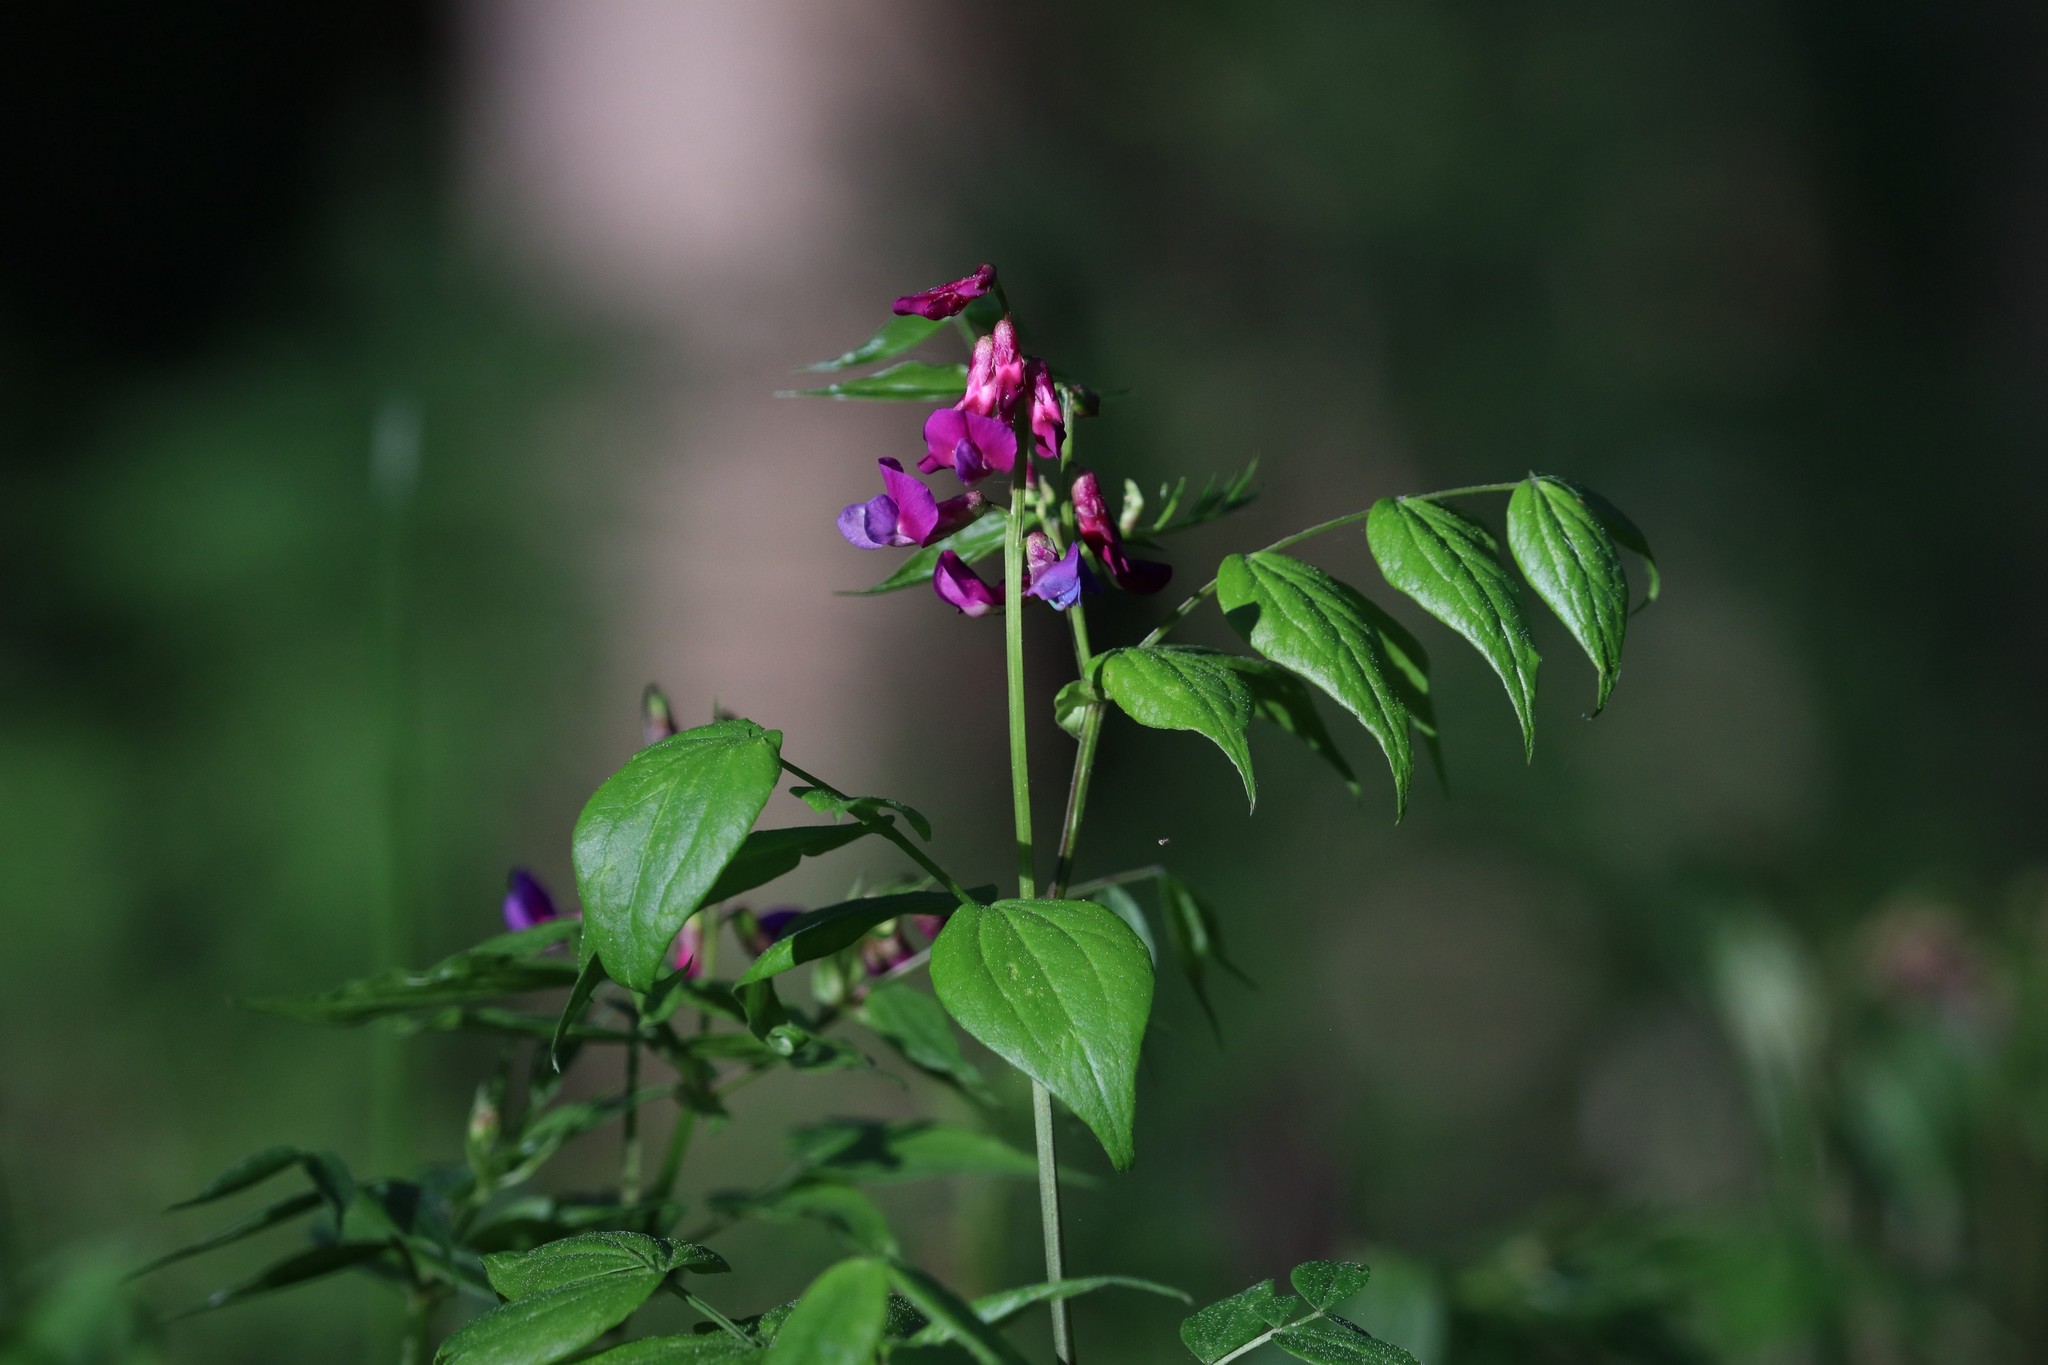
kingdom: Plantae
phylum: Tracheophyta
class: Magnoliopsida
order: Fabales
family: Fabaceae
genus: Lathyrus
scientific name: Lathyrus vernus
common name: Spring pea
